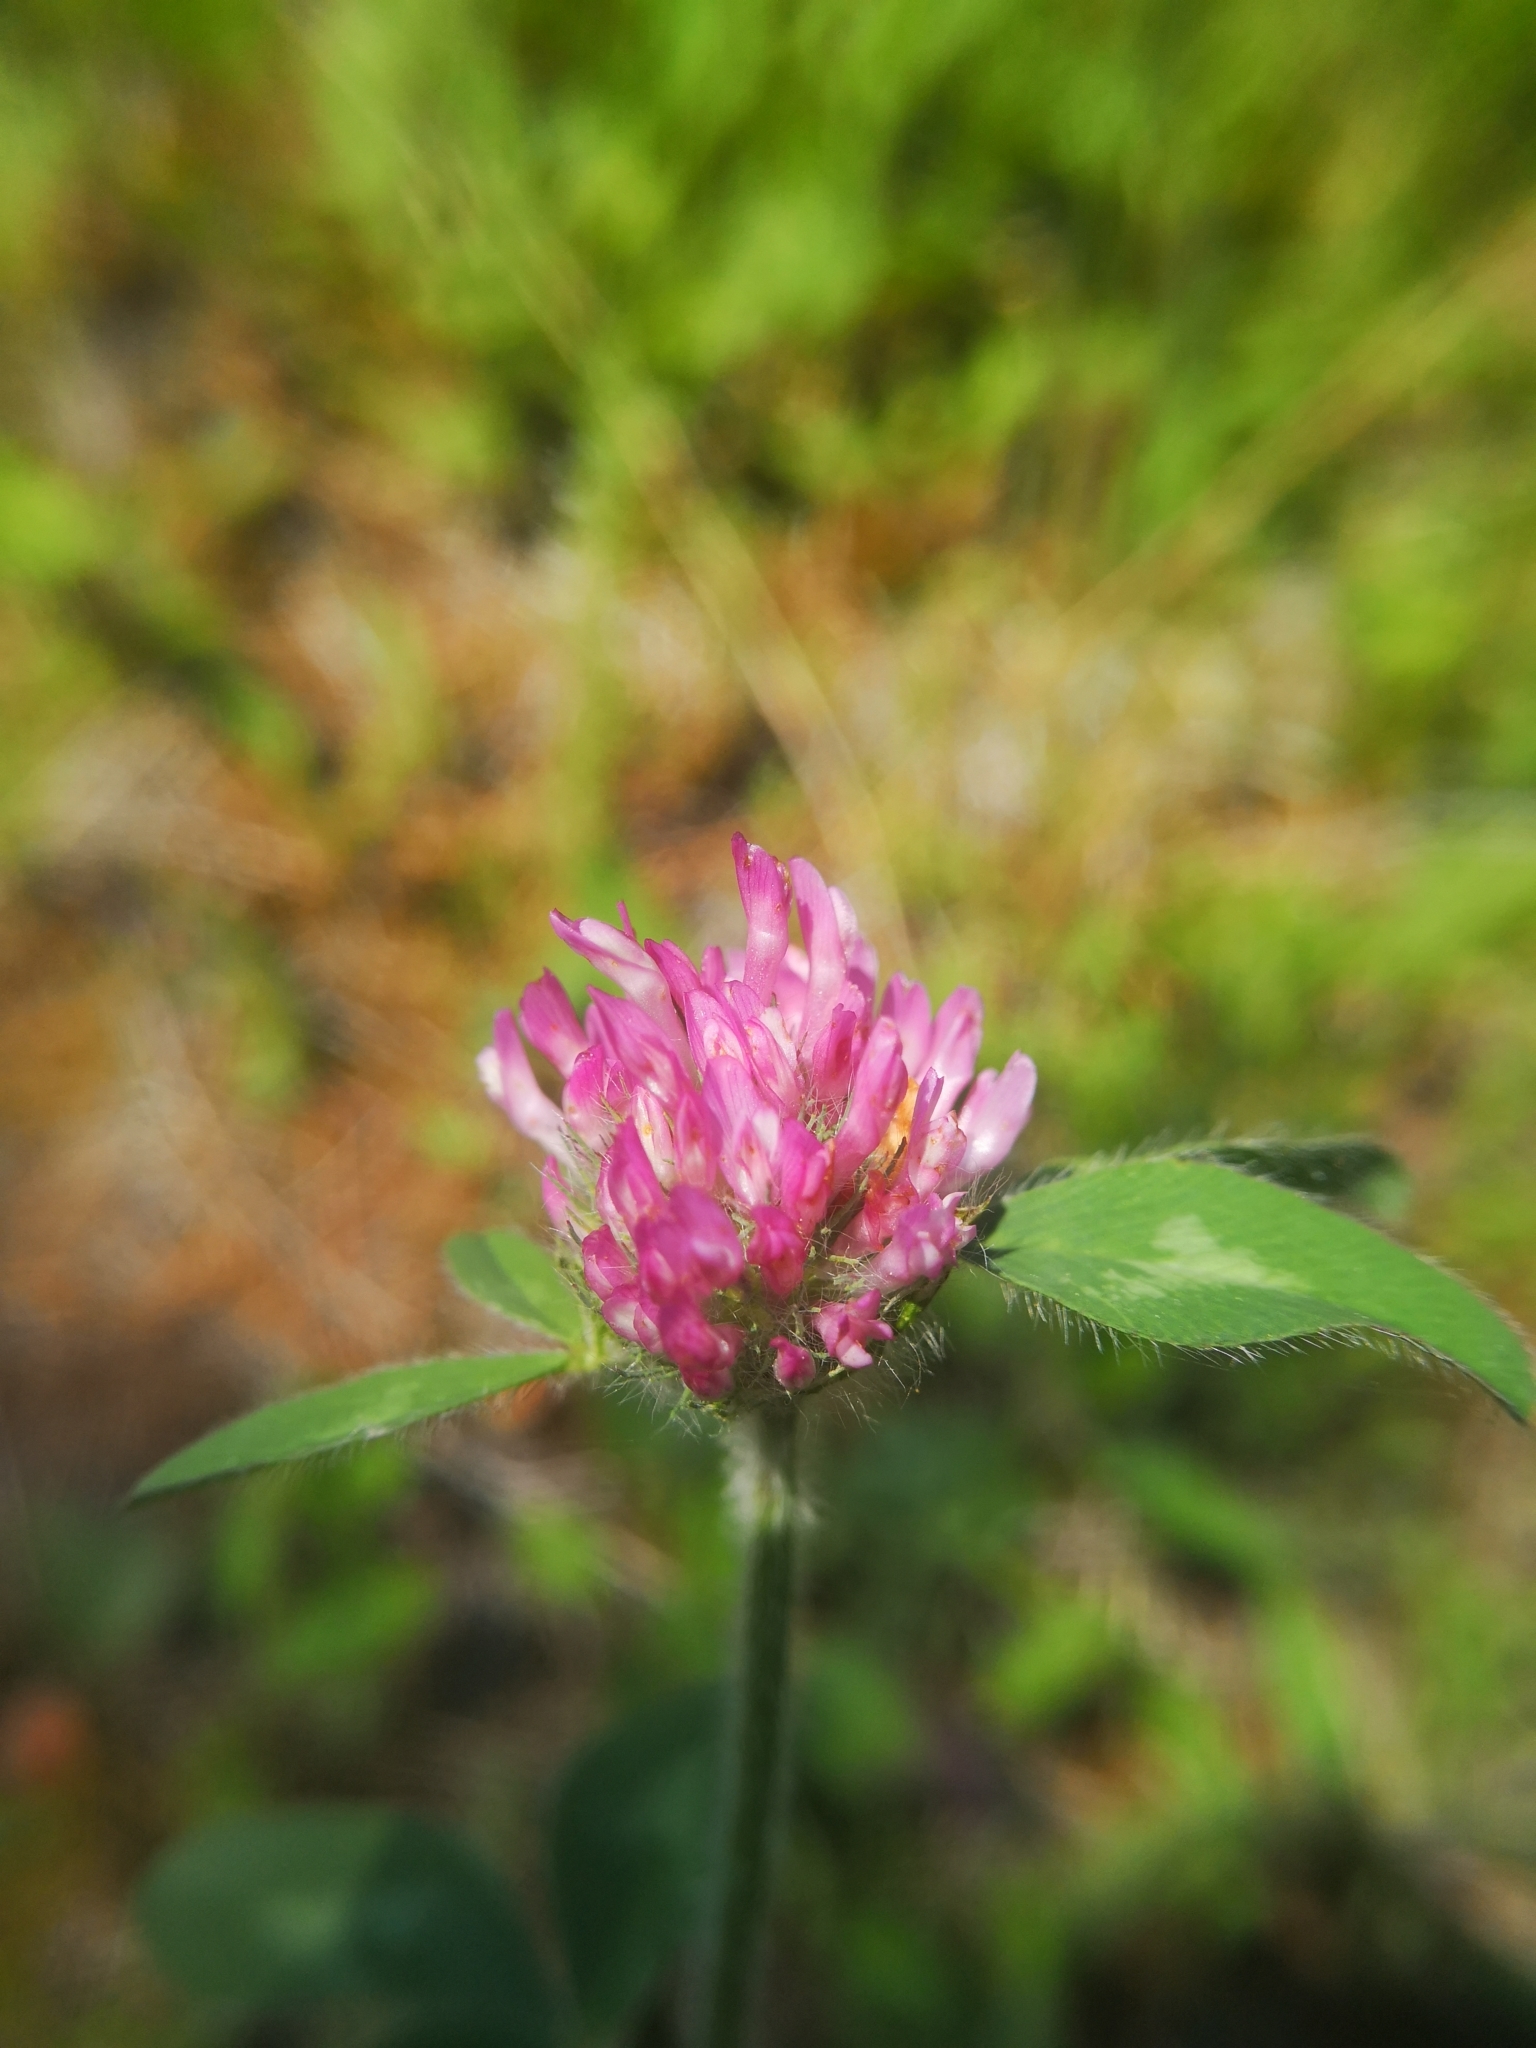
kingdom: Plantae
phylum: Tracheophyta
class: Magnoliopsida
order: Fabales
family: Fabaceae
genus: Trifolium
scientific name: Trifolium pratense
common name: Red clover
